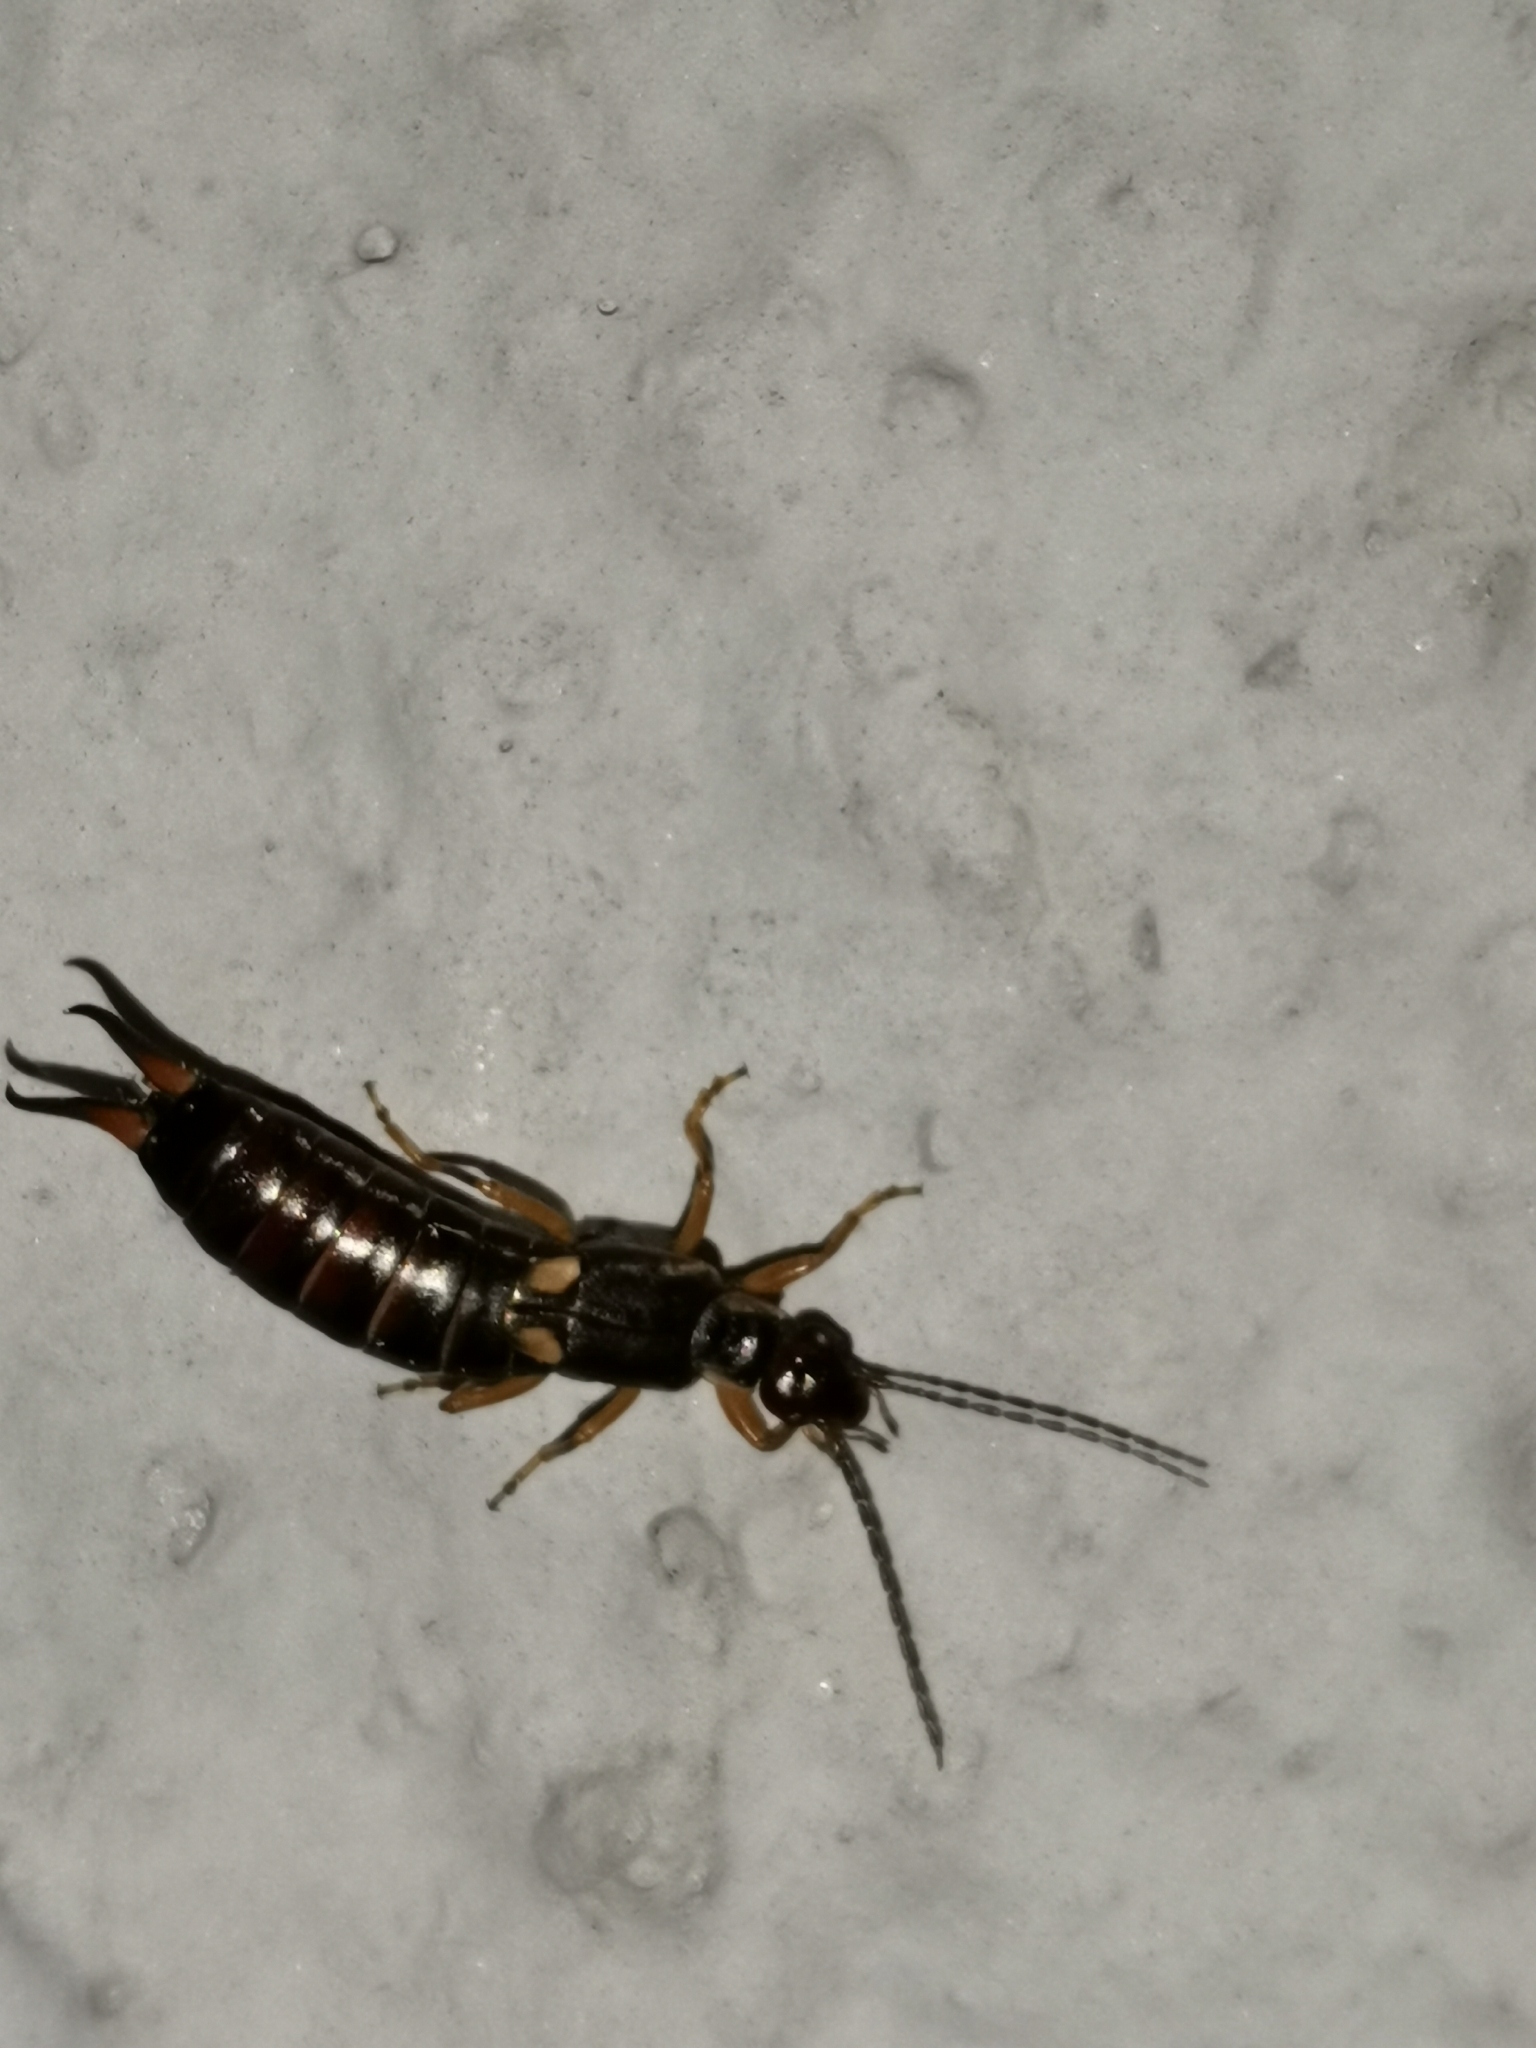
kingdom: Animalia
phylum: Arthropoda
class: Insecta
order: Dermaptera
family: Forficulidae
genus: Forficula
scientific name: Forficula
